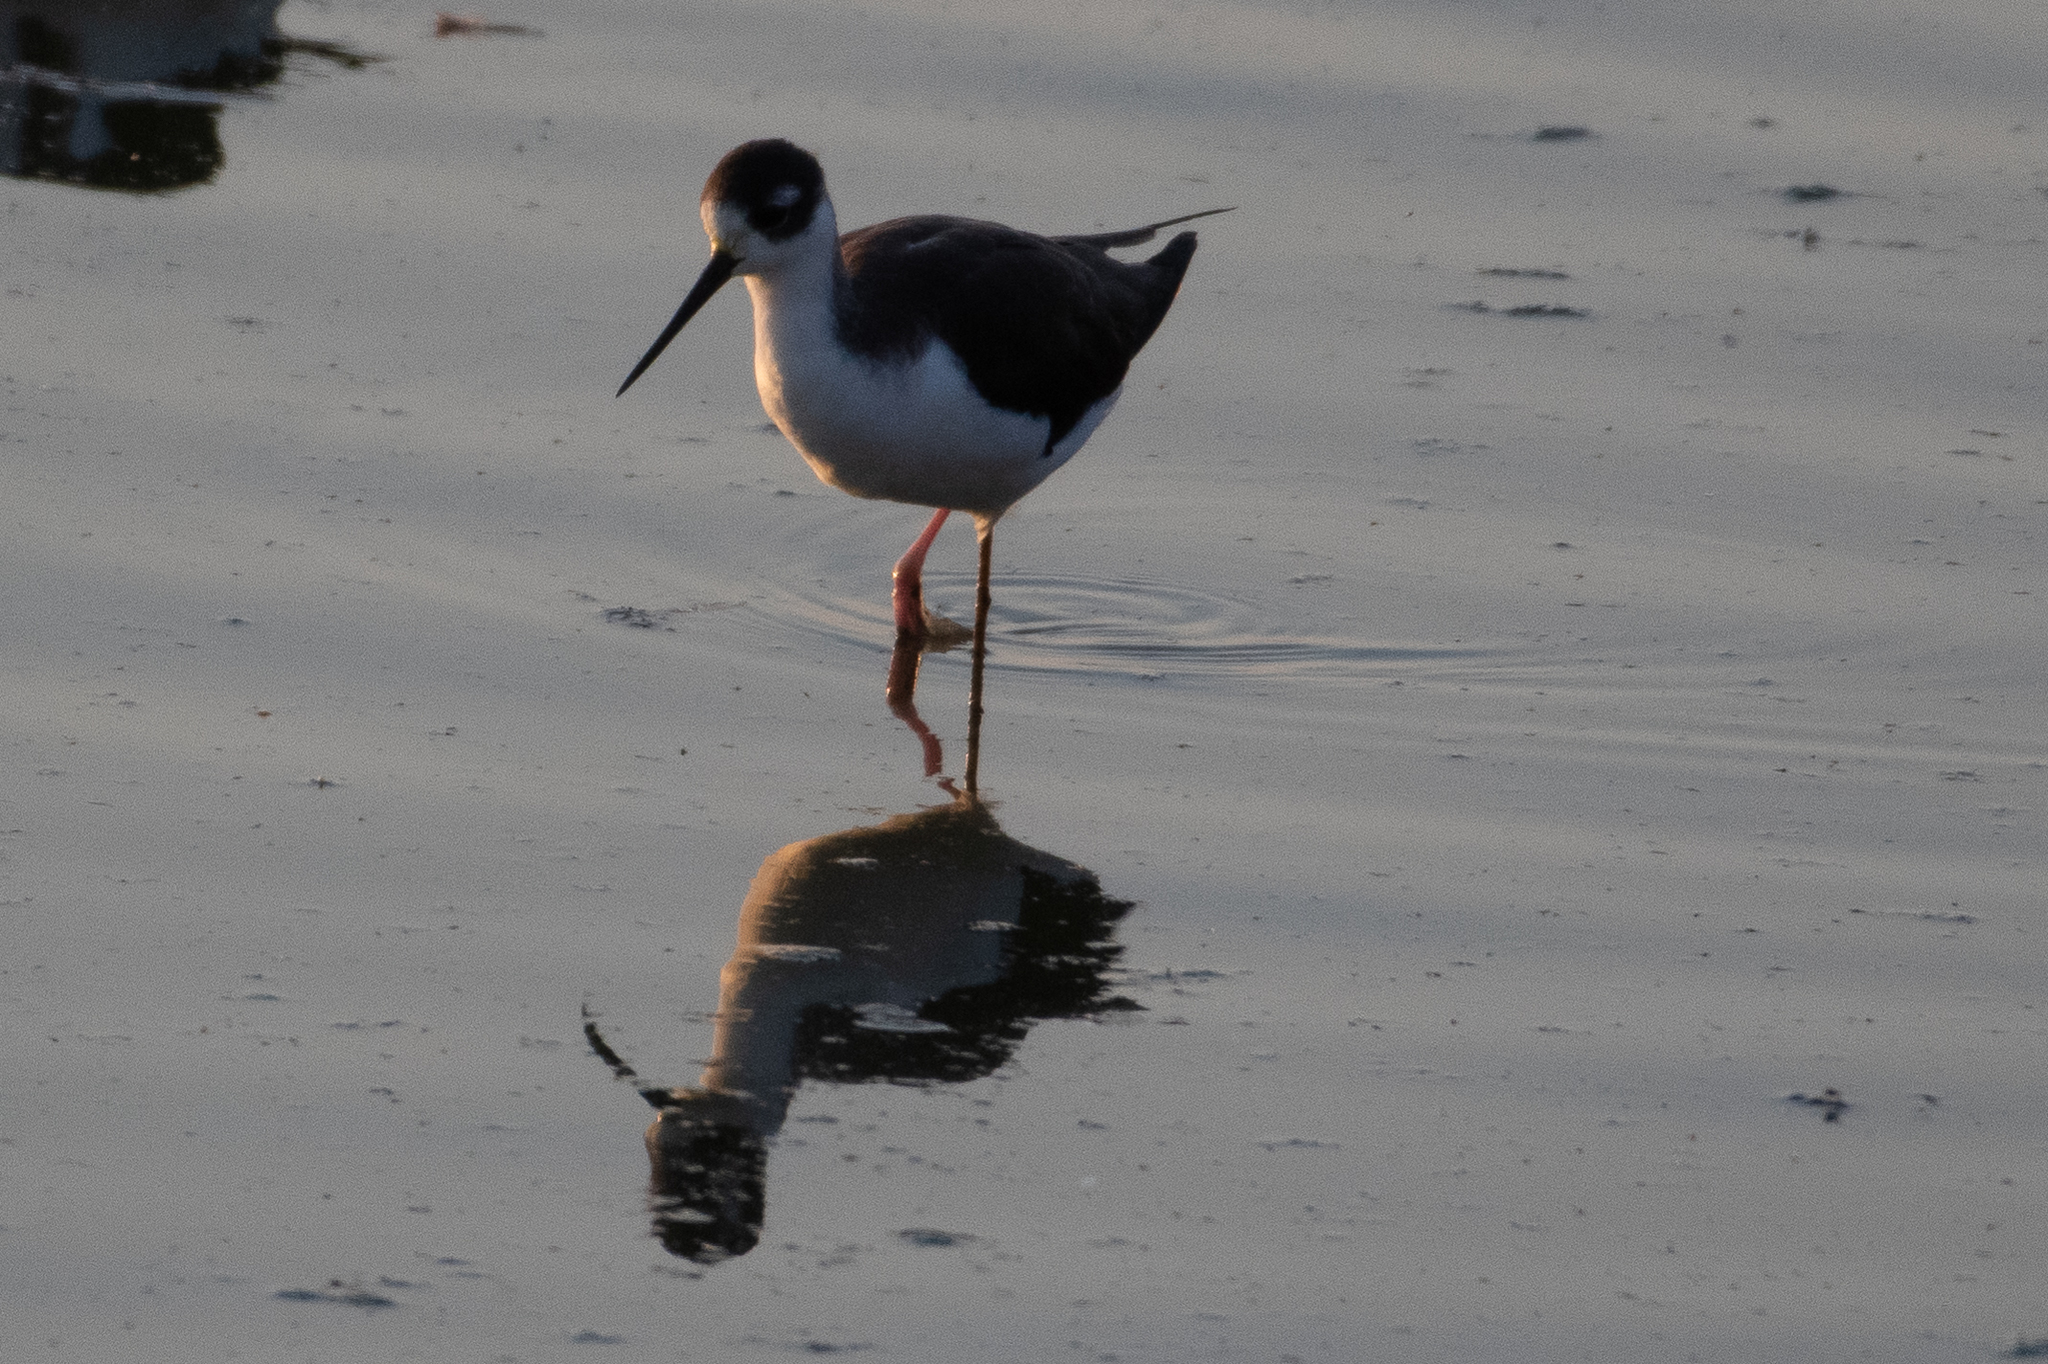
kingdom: Animalia
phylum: Chordata
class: Aves
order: Charadriiformes
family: Recurvirostridae
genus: Himantopus
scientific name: Himantopus mexicanus
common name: Black-necked stilt
